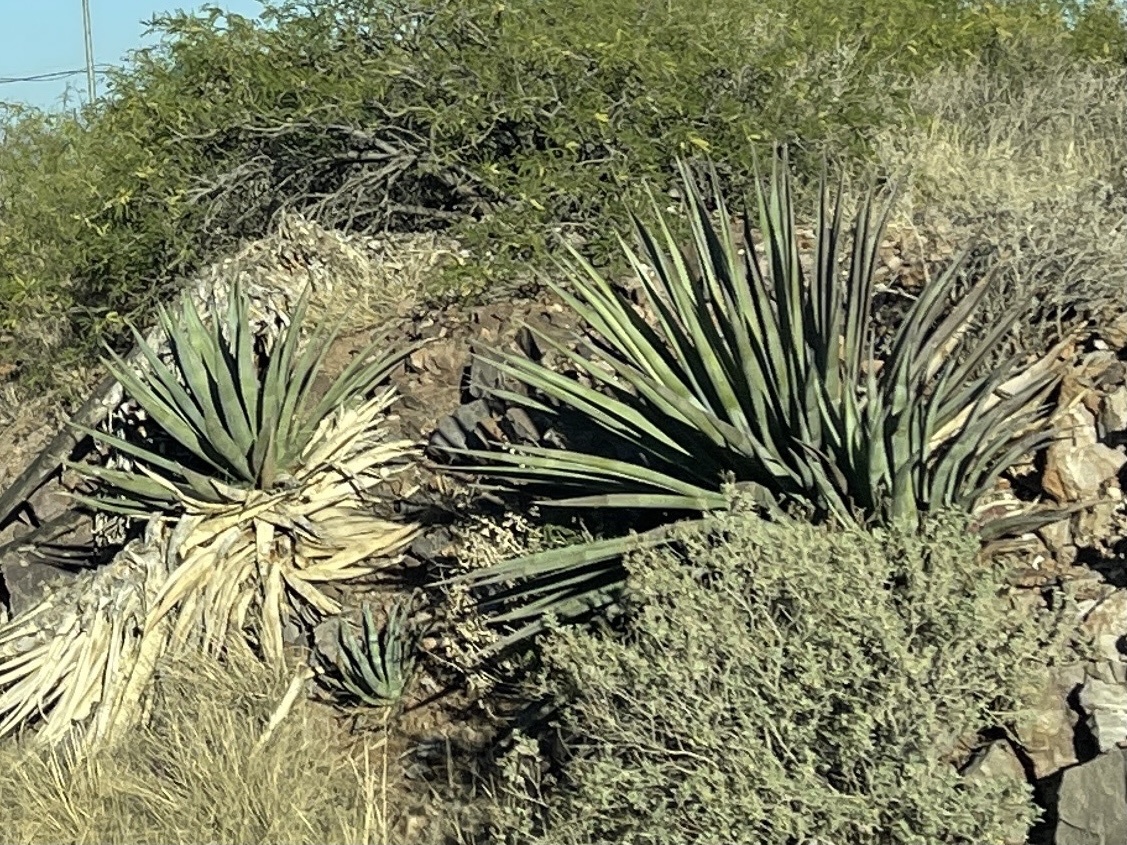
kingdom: Plantae
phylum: Tracheophyta
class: Liliopsida
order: Asparagales
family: Asparagaceae
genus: Agave
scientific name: Agave palmeri
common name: Palmer agave
